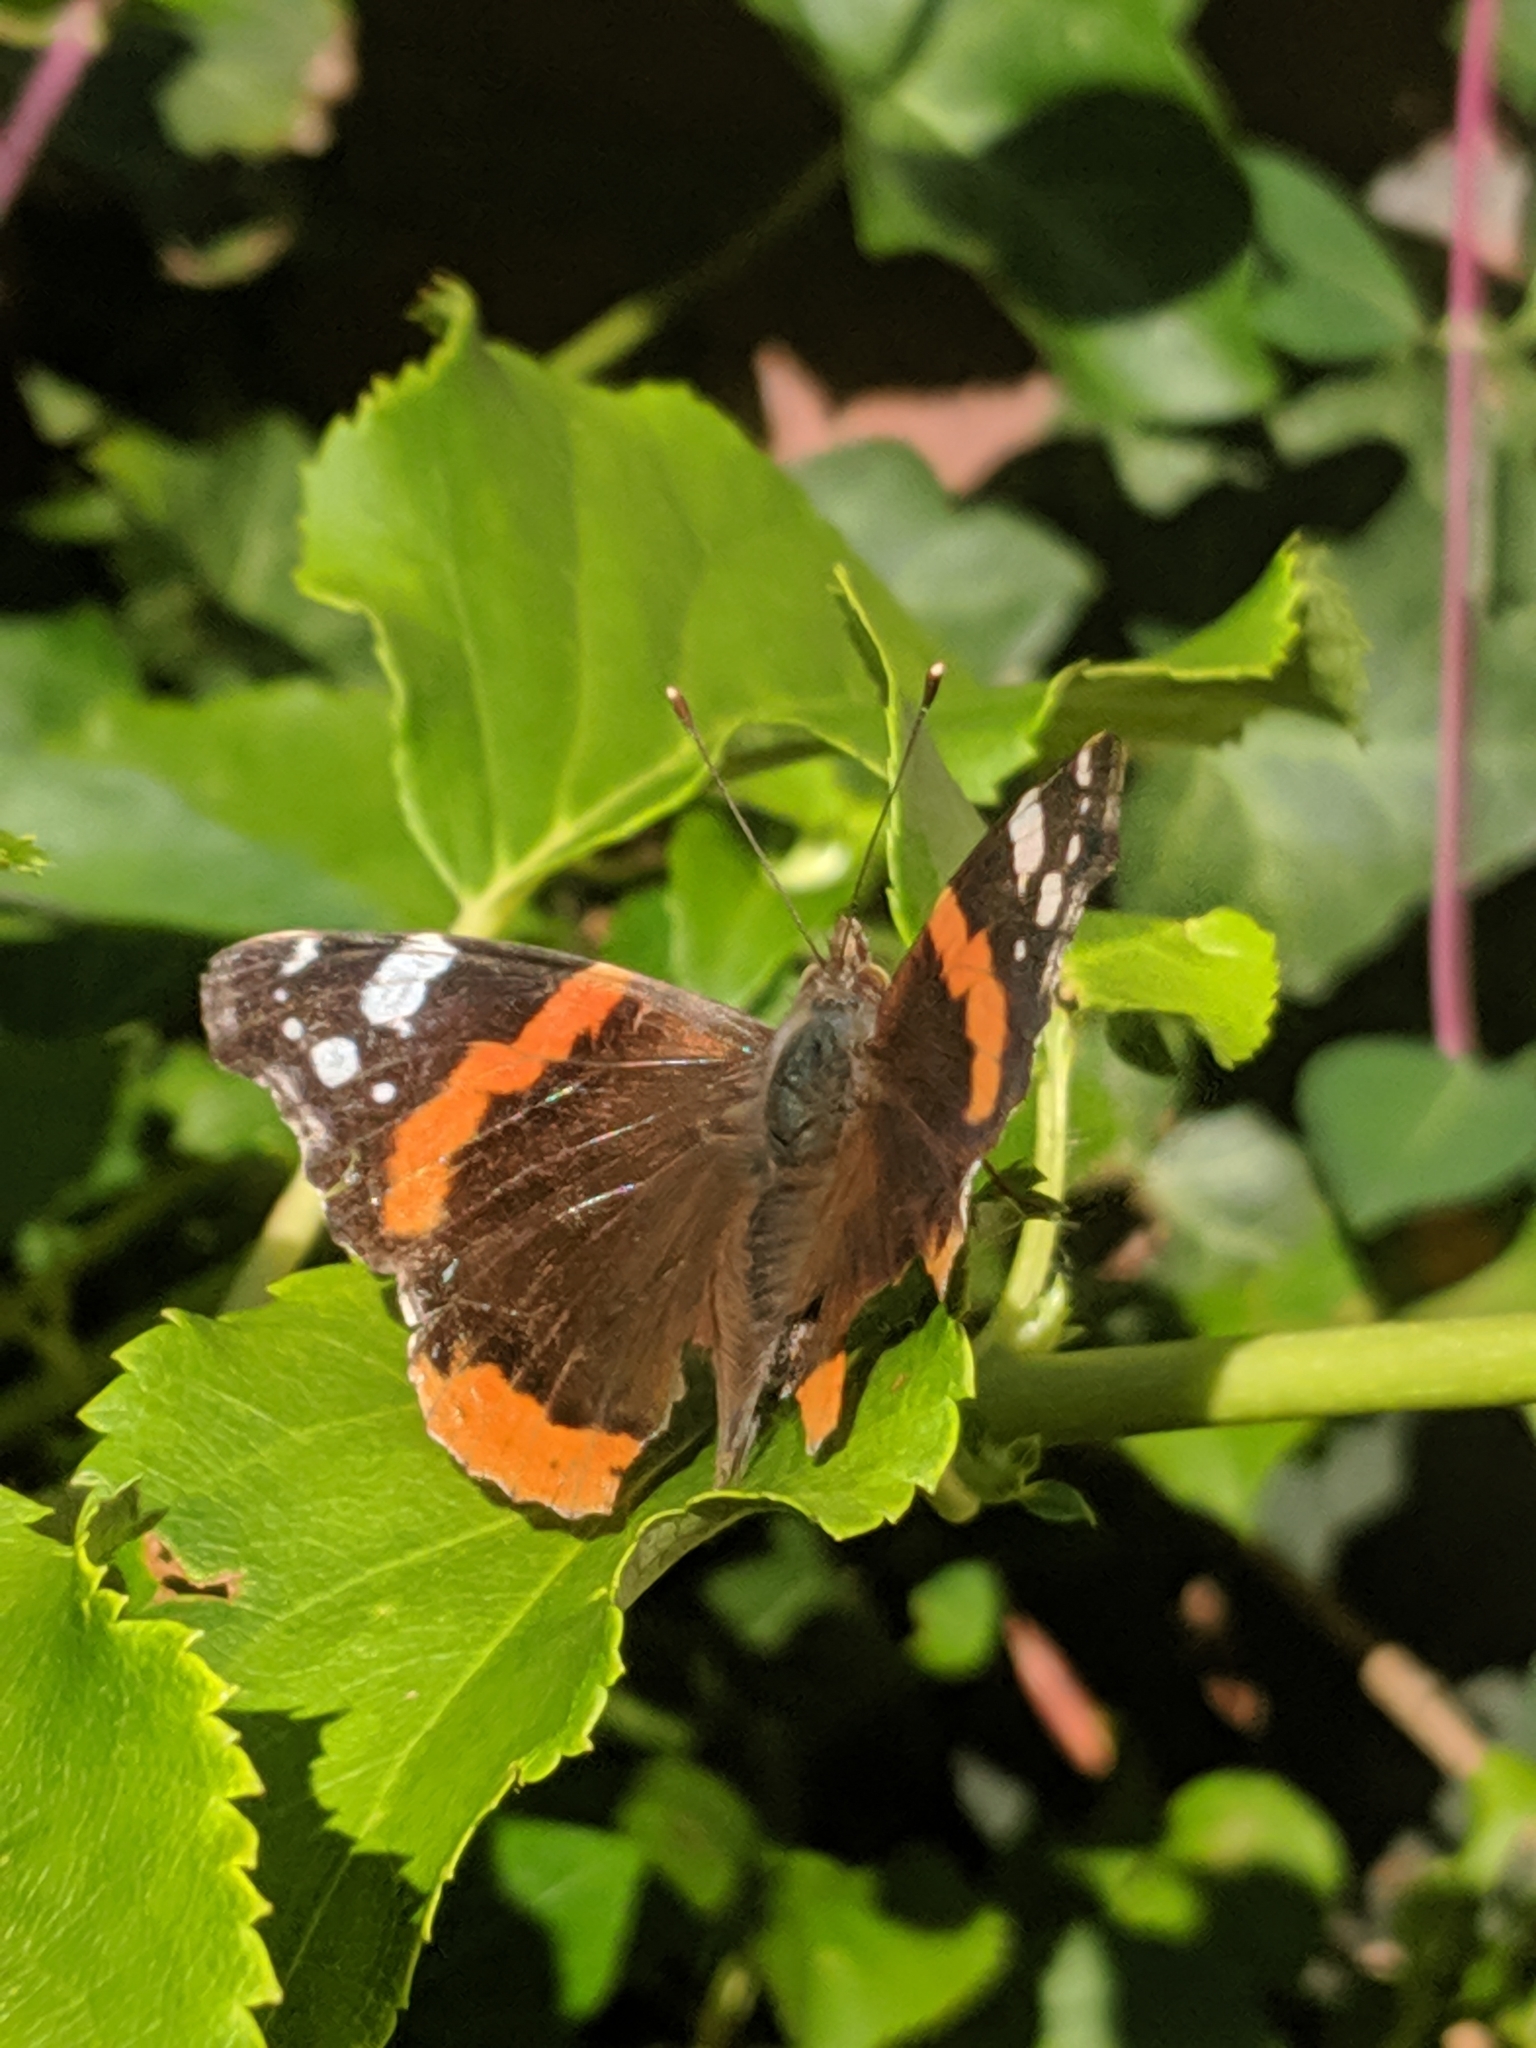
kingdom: Animalia
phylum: Arthropoda
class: Insecta
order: Lepidoptera
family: Nymphalidae
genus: Vanessa
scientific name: Vanessa atalanta
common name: Red admiral
